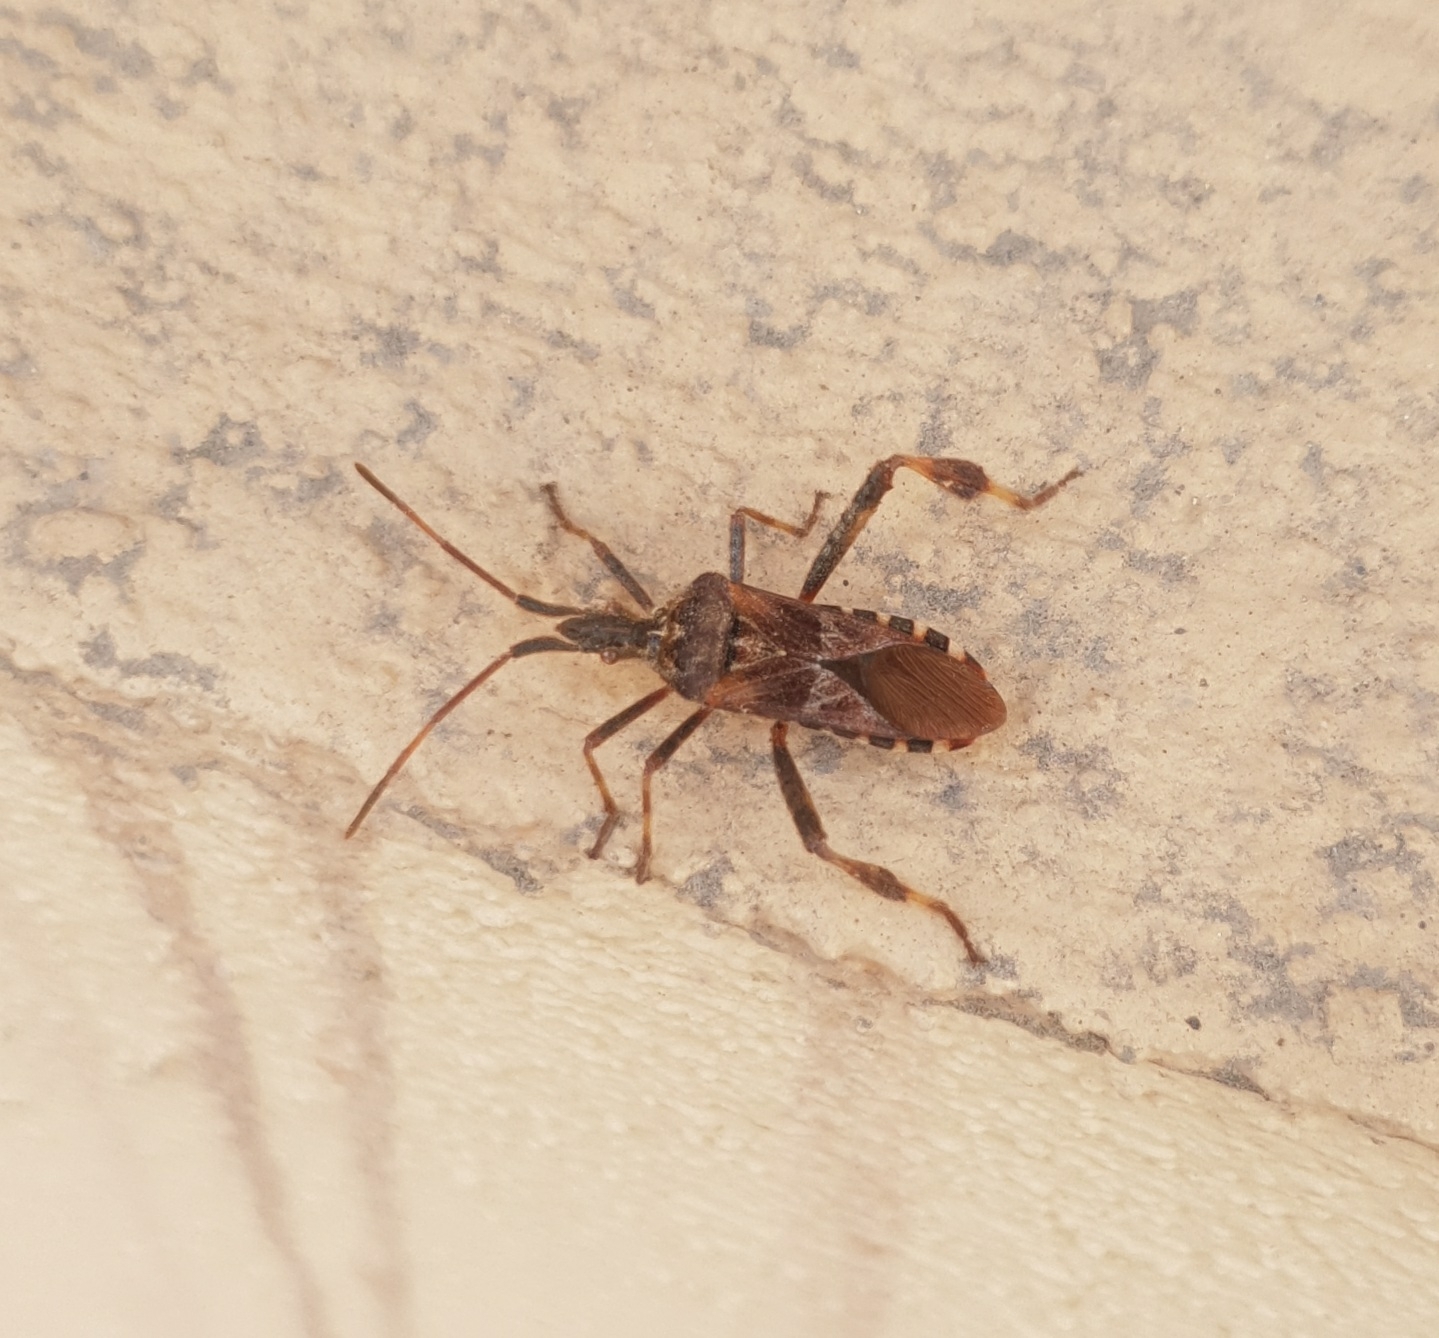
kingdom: Animalia
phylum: Arthropoda
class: Insecta
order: Hemiptera
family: Coreidae
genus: Leptoglossus
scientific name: Leptoglossus occidentalis
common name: Western conifer-seed bug
